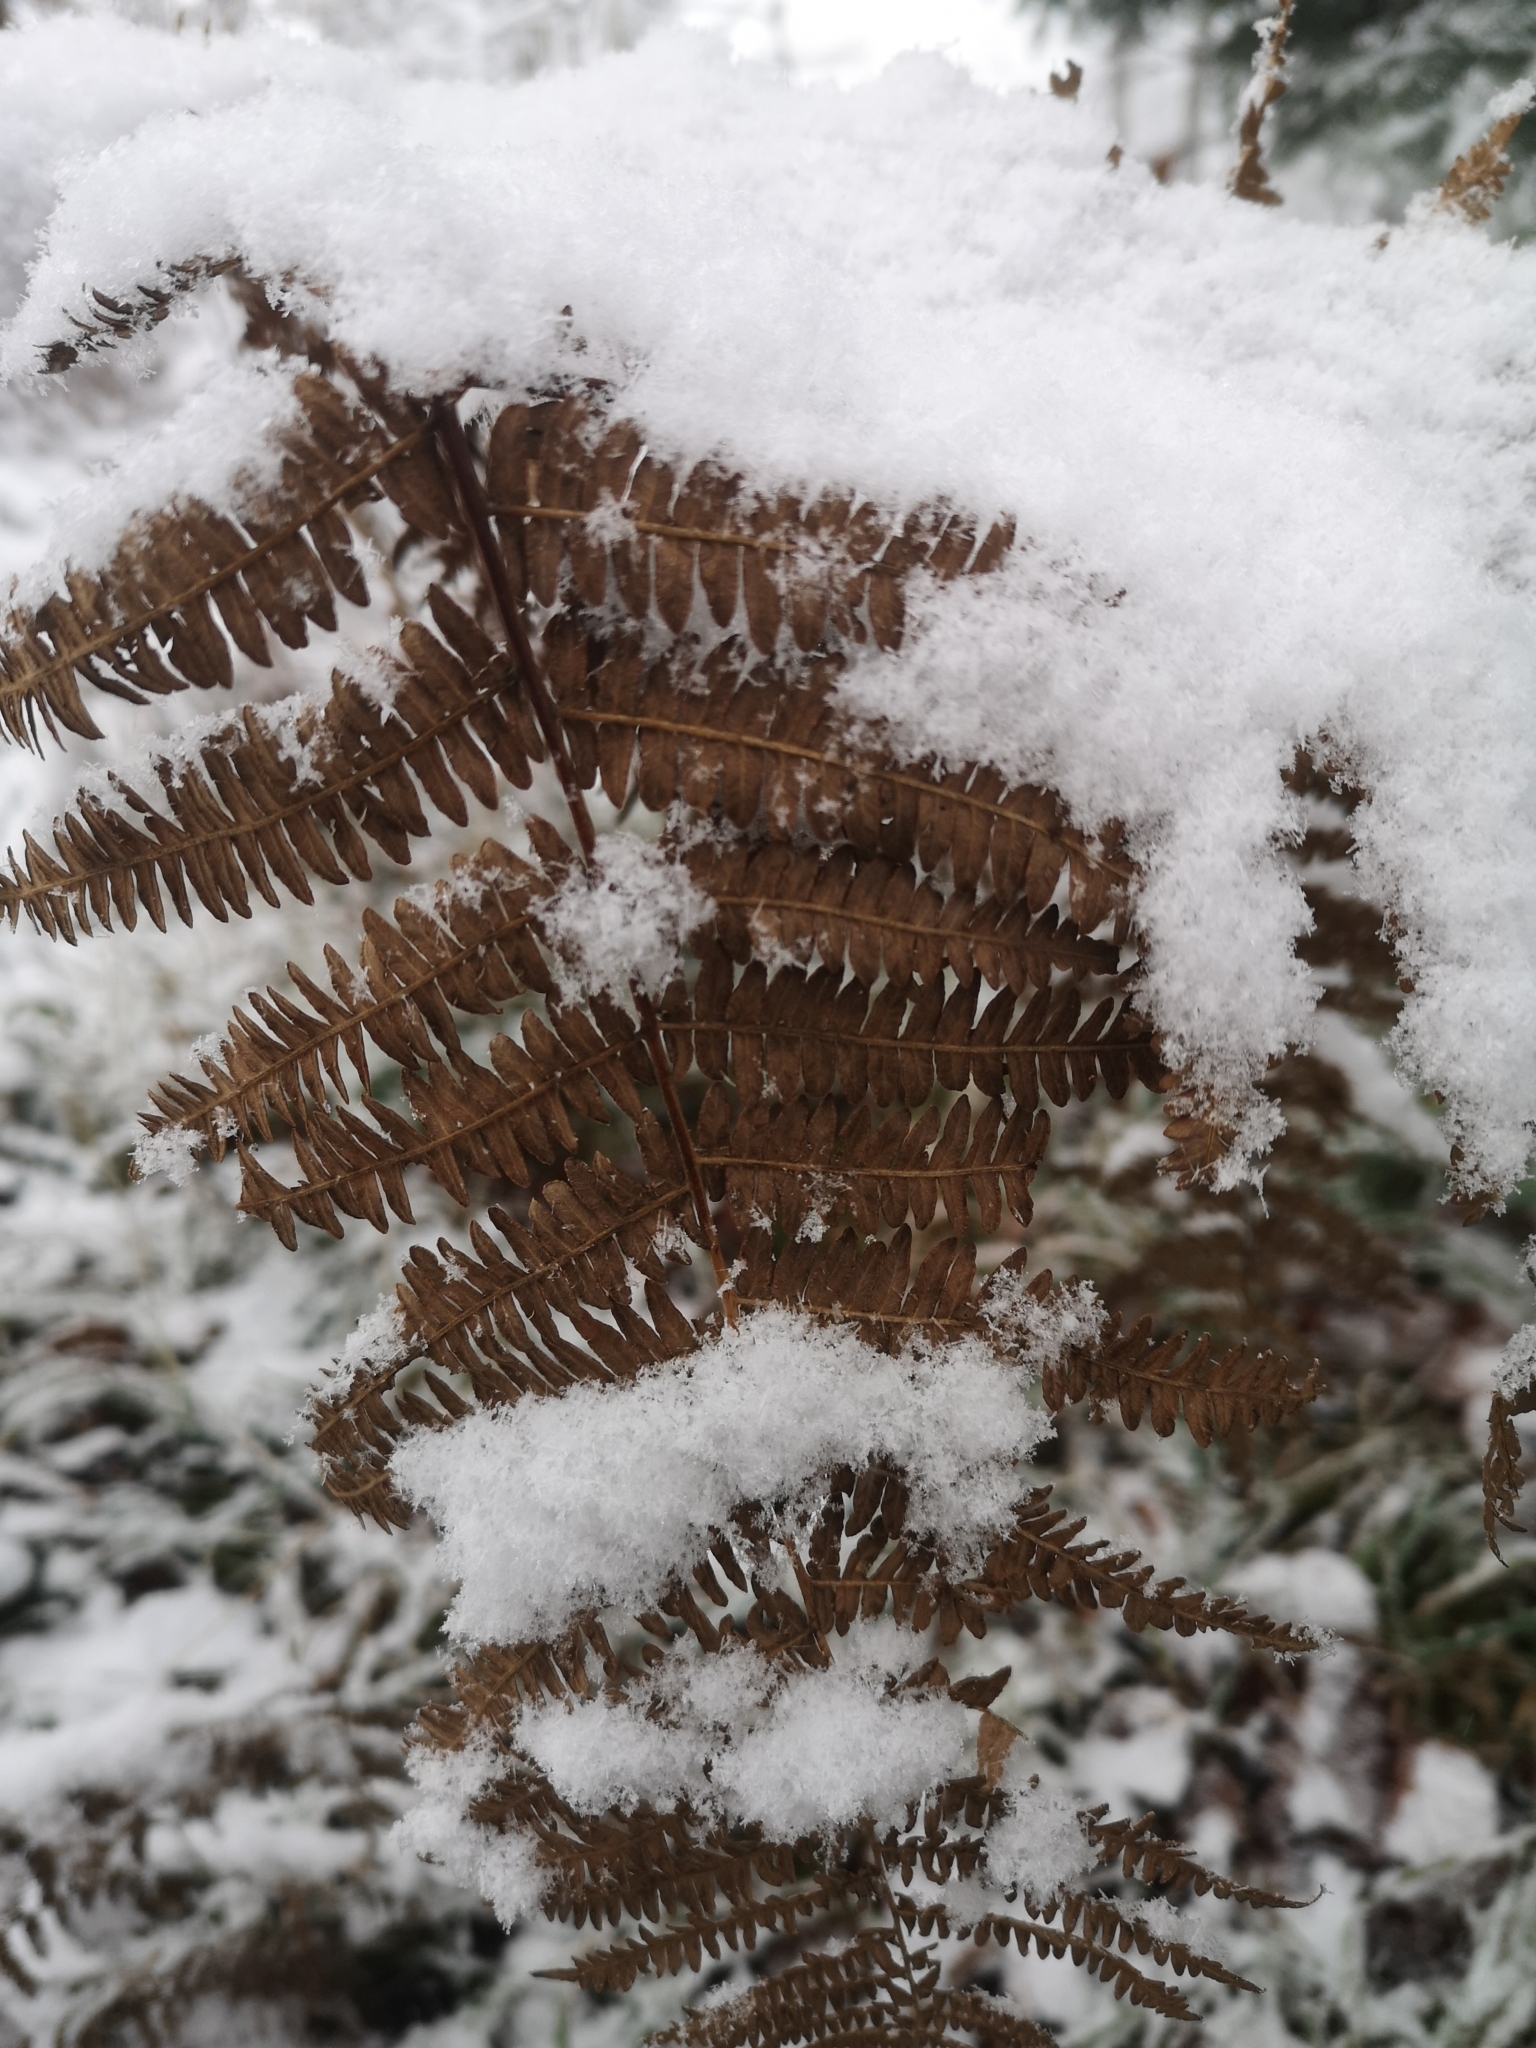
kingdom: Plantae
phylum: Tracheophyta
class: Polypodiopsida
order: Polypodiales
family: Dennstaedtiaceae
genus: Pteridium
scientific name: Pteridium aquilinum
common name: Bracken
